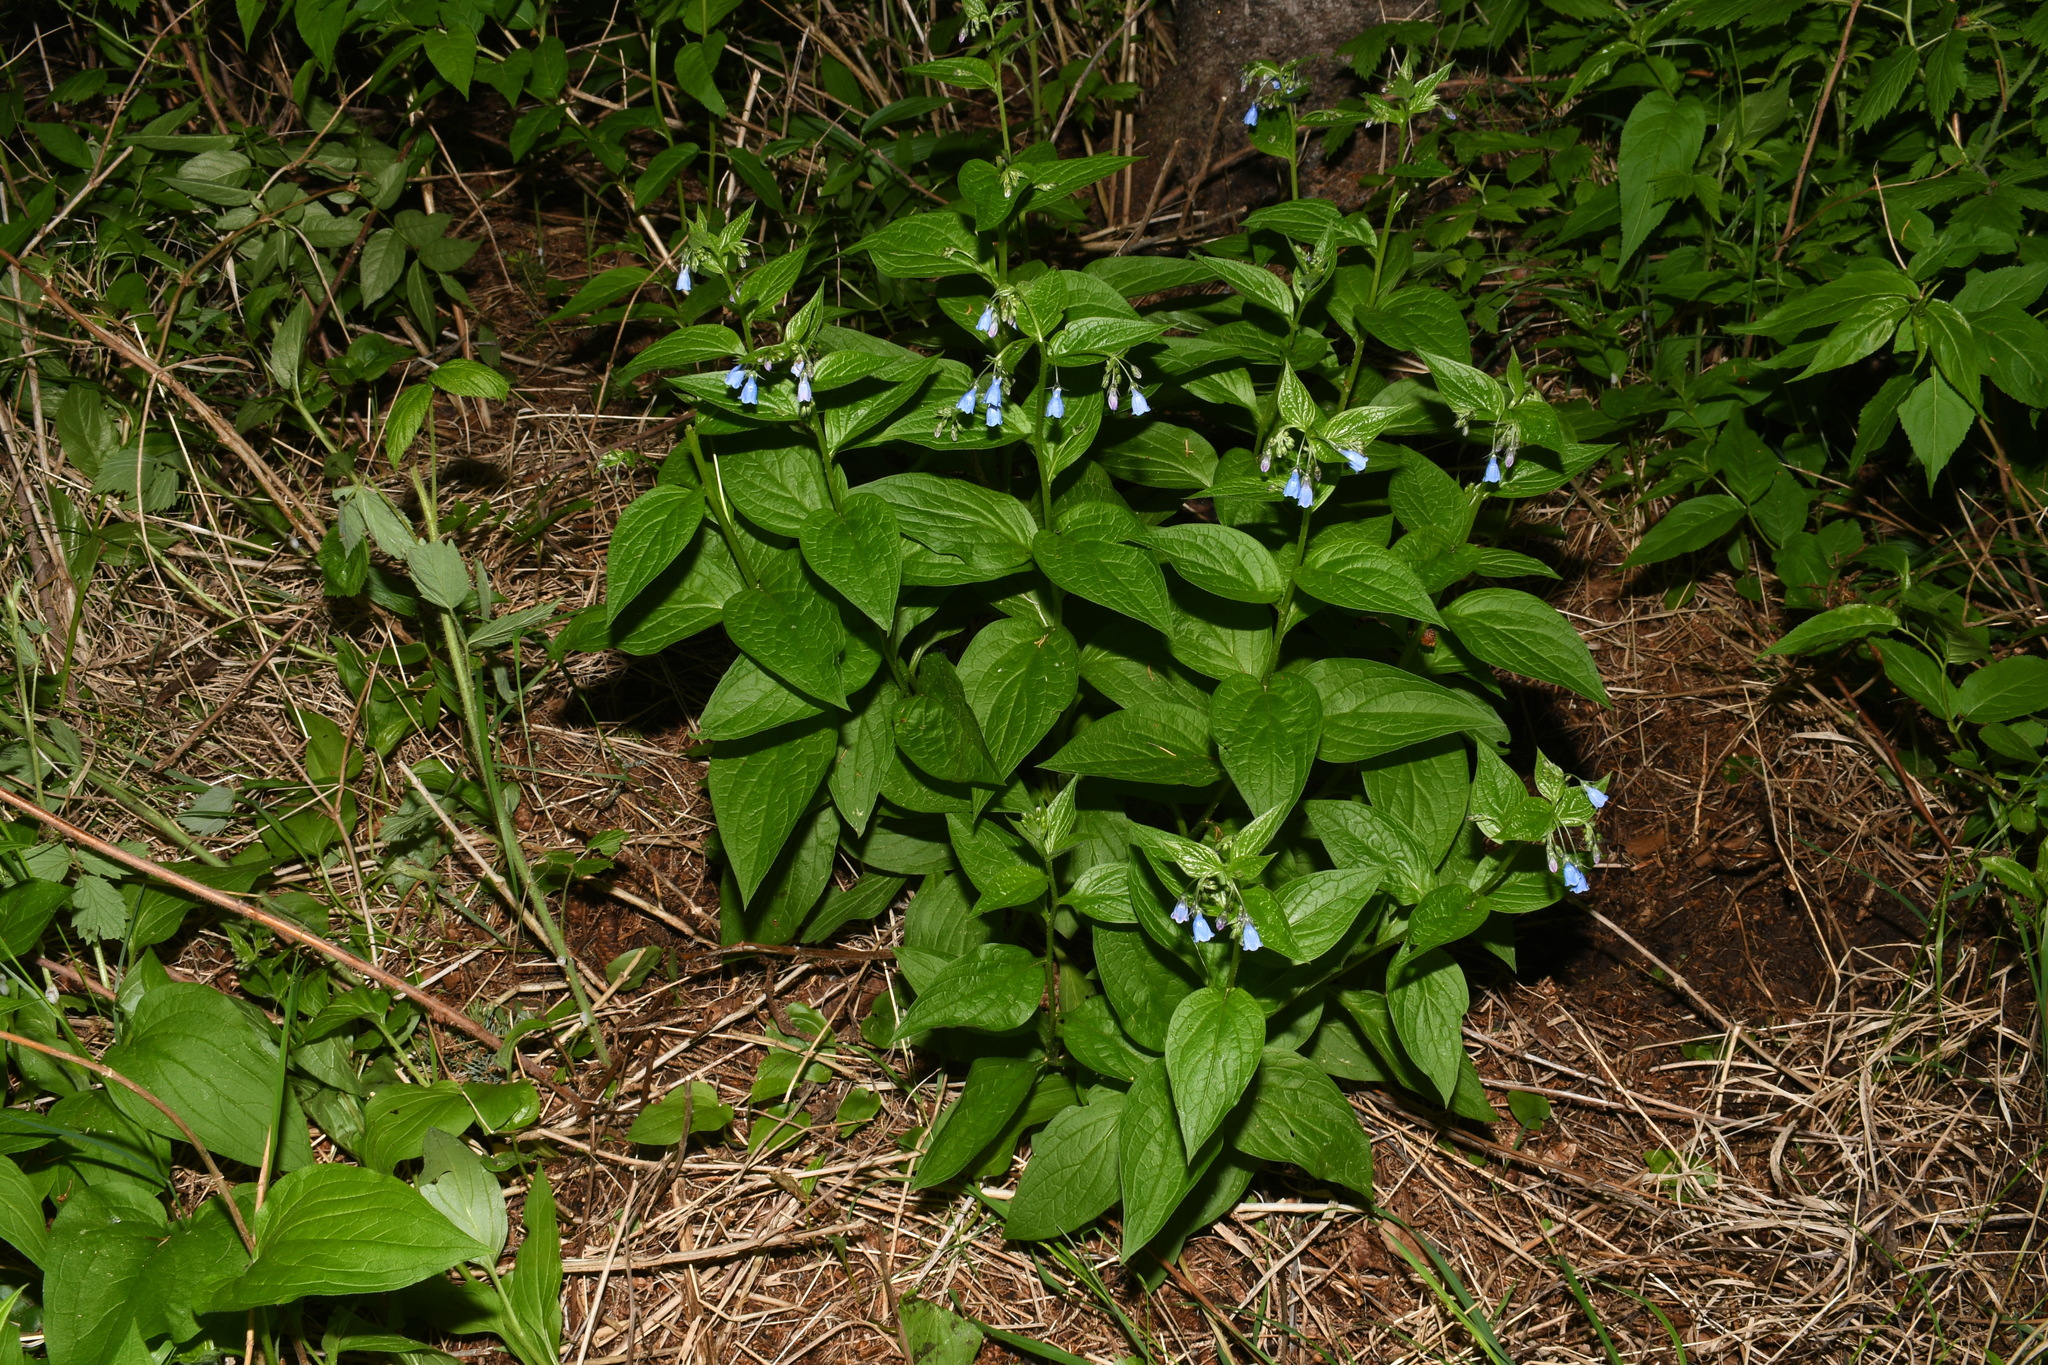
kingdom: Plantae
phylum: Tracheophyta
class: Magnoliopsida
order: Boraginales
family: Boraginaceae
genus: Mertensia
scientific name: Mertensia paniculata
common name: Panicled bluebells
